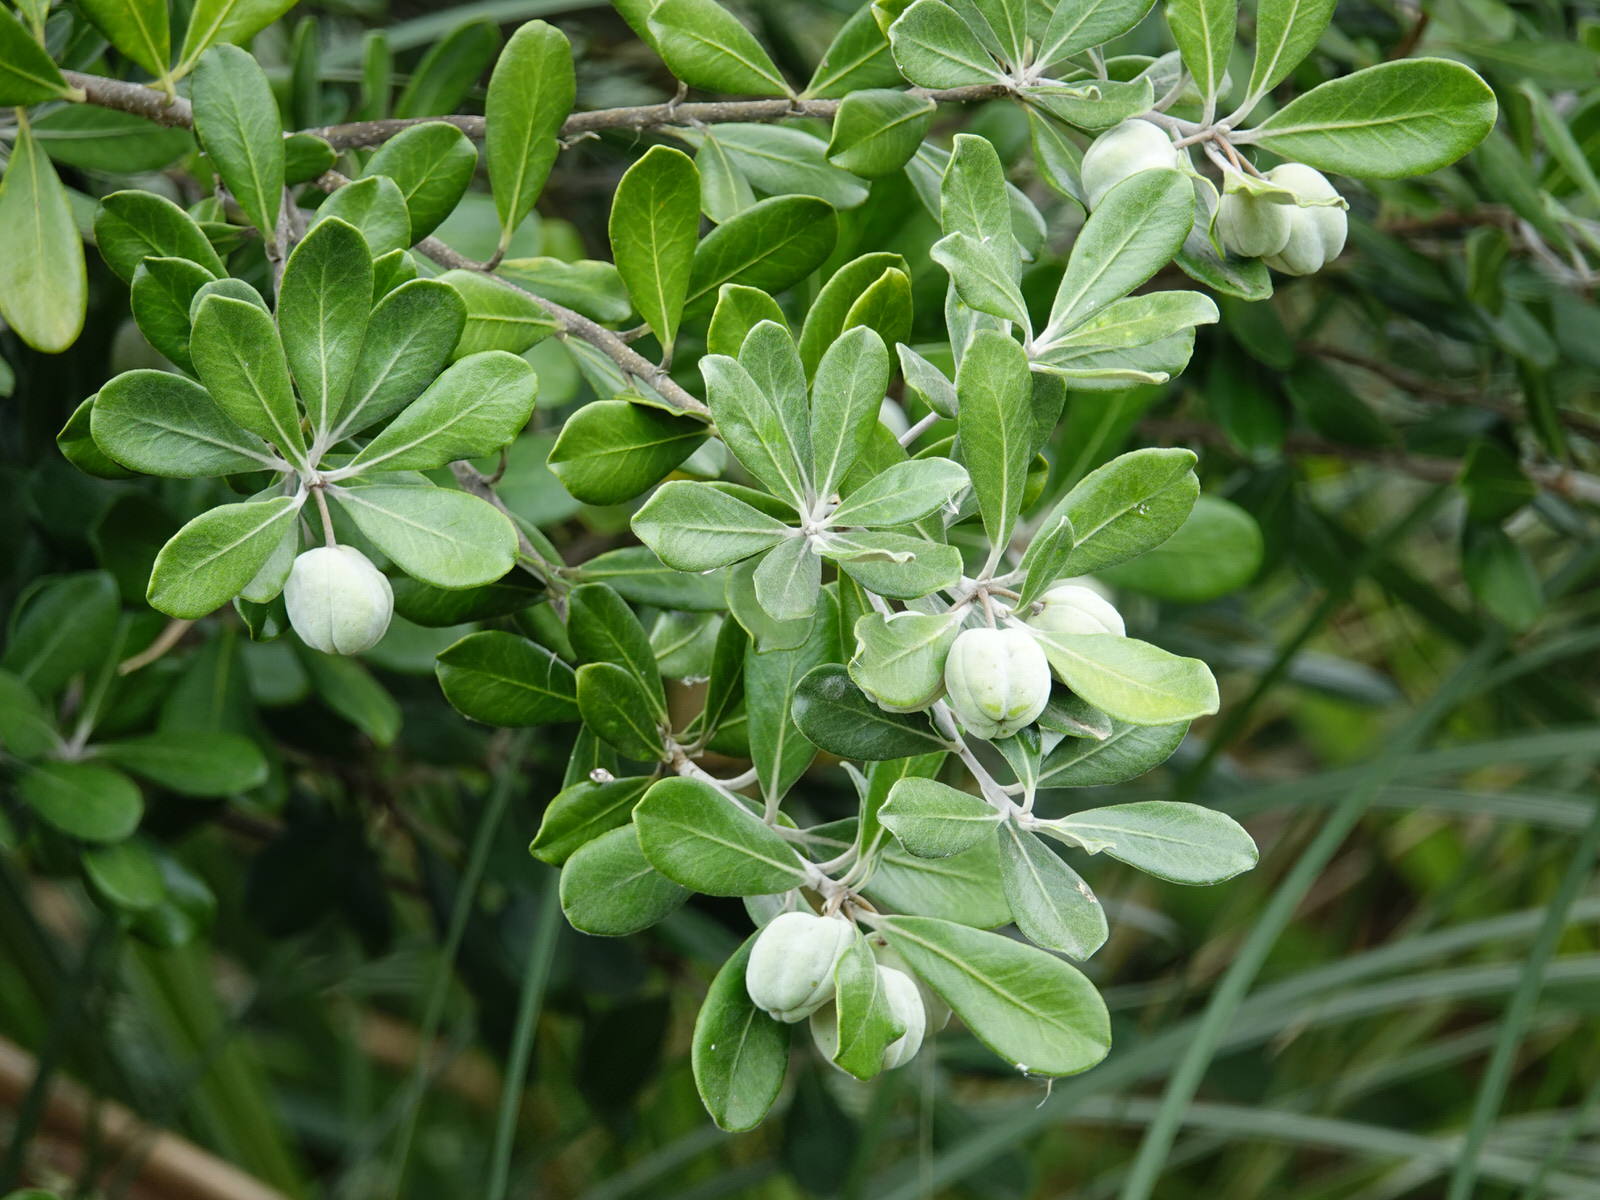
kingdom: Plantae
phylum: Tracheophyta
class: Magnoliopsida
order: Apiales
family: Pittosporaceae
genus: Pittosporum
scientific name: Pittosporum crassifolium
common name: Karo
